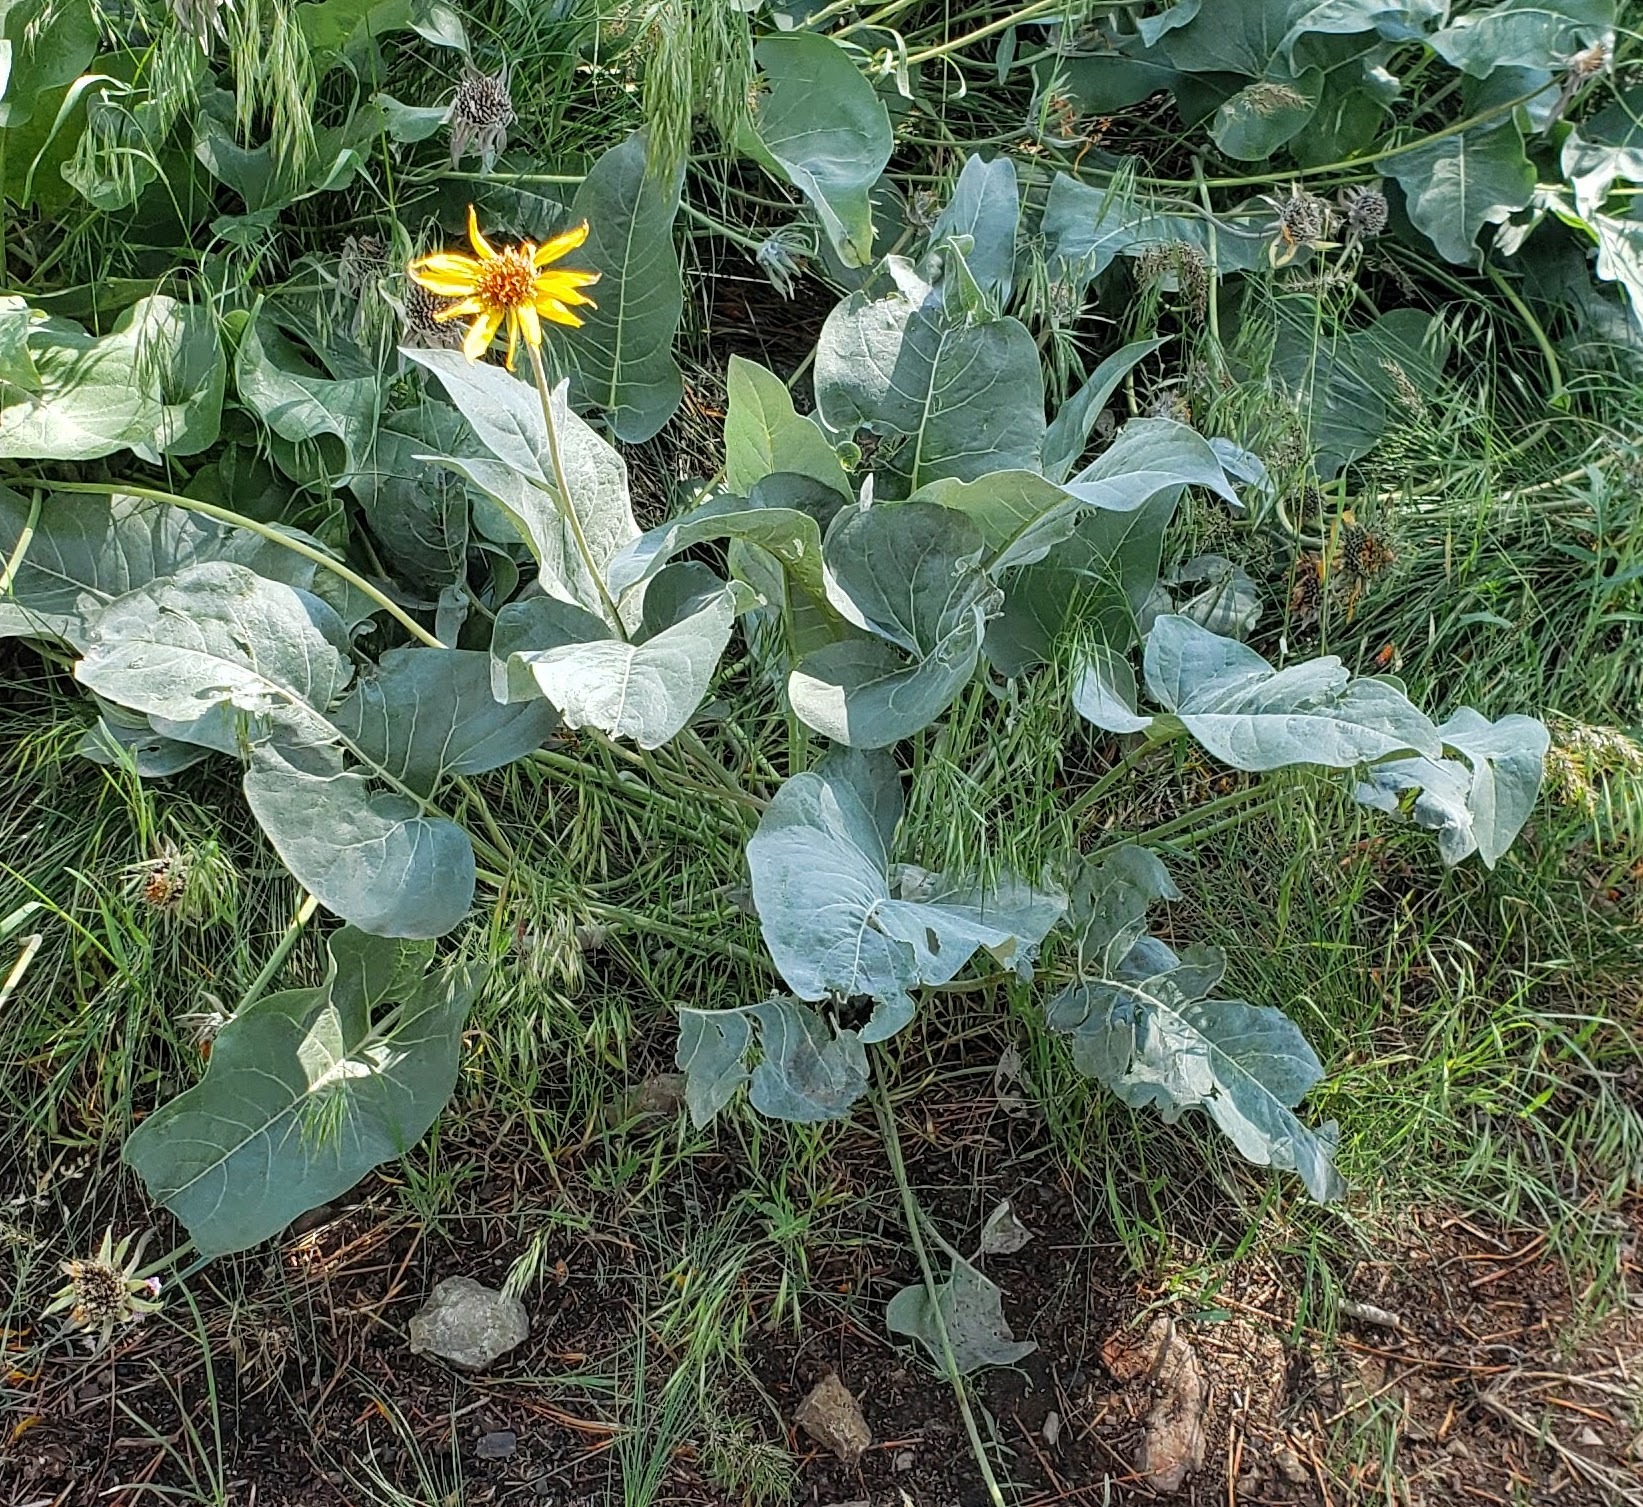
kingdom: Plantae
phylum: Tracheophyta
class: Magnoliopsida
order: Asterales
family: Asteraceae
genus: Wyethia
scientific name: Wyethia sagittata
